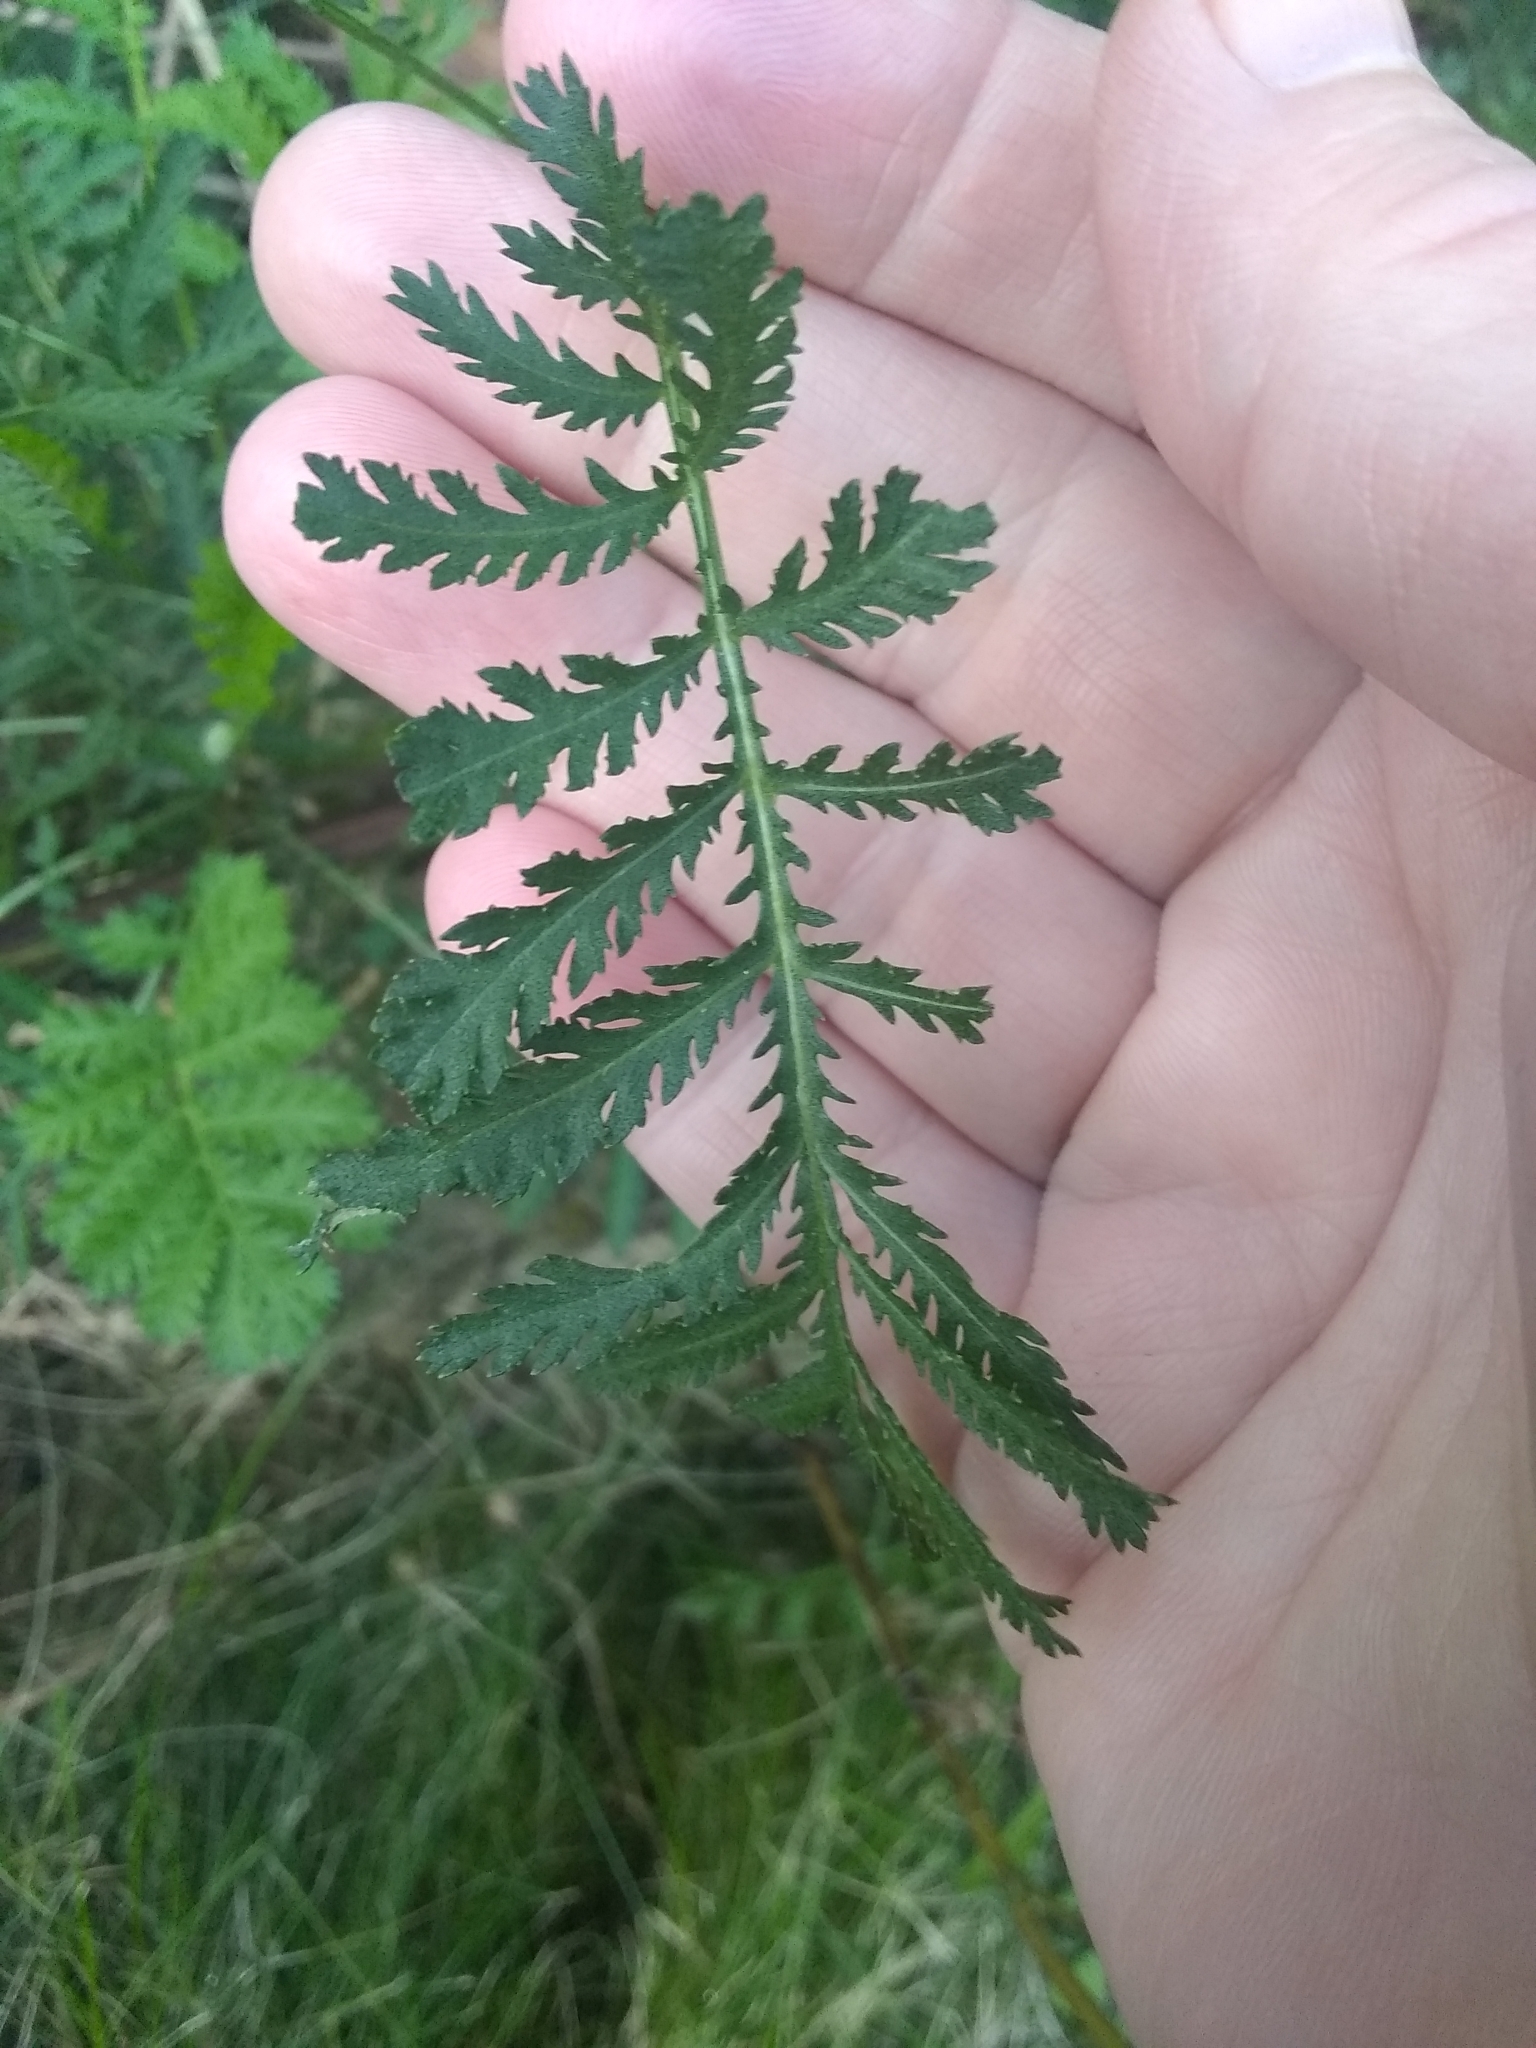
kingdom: Plantae
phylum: Tracheophyta
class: Magnoliopsida
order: Asterales
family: Asteraceae
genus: Tanacetum
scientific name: Tanacetum vulgare
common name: Common tansy
